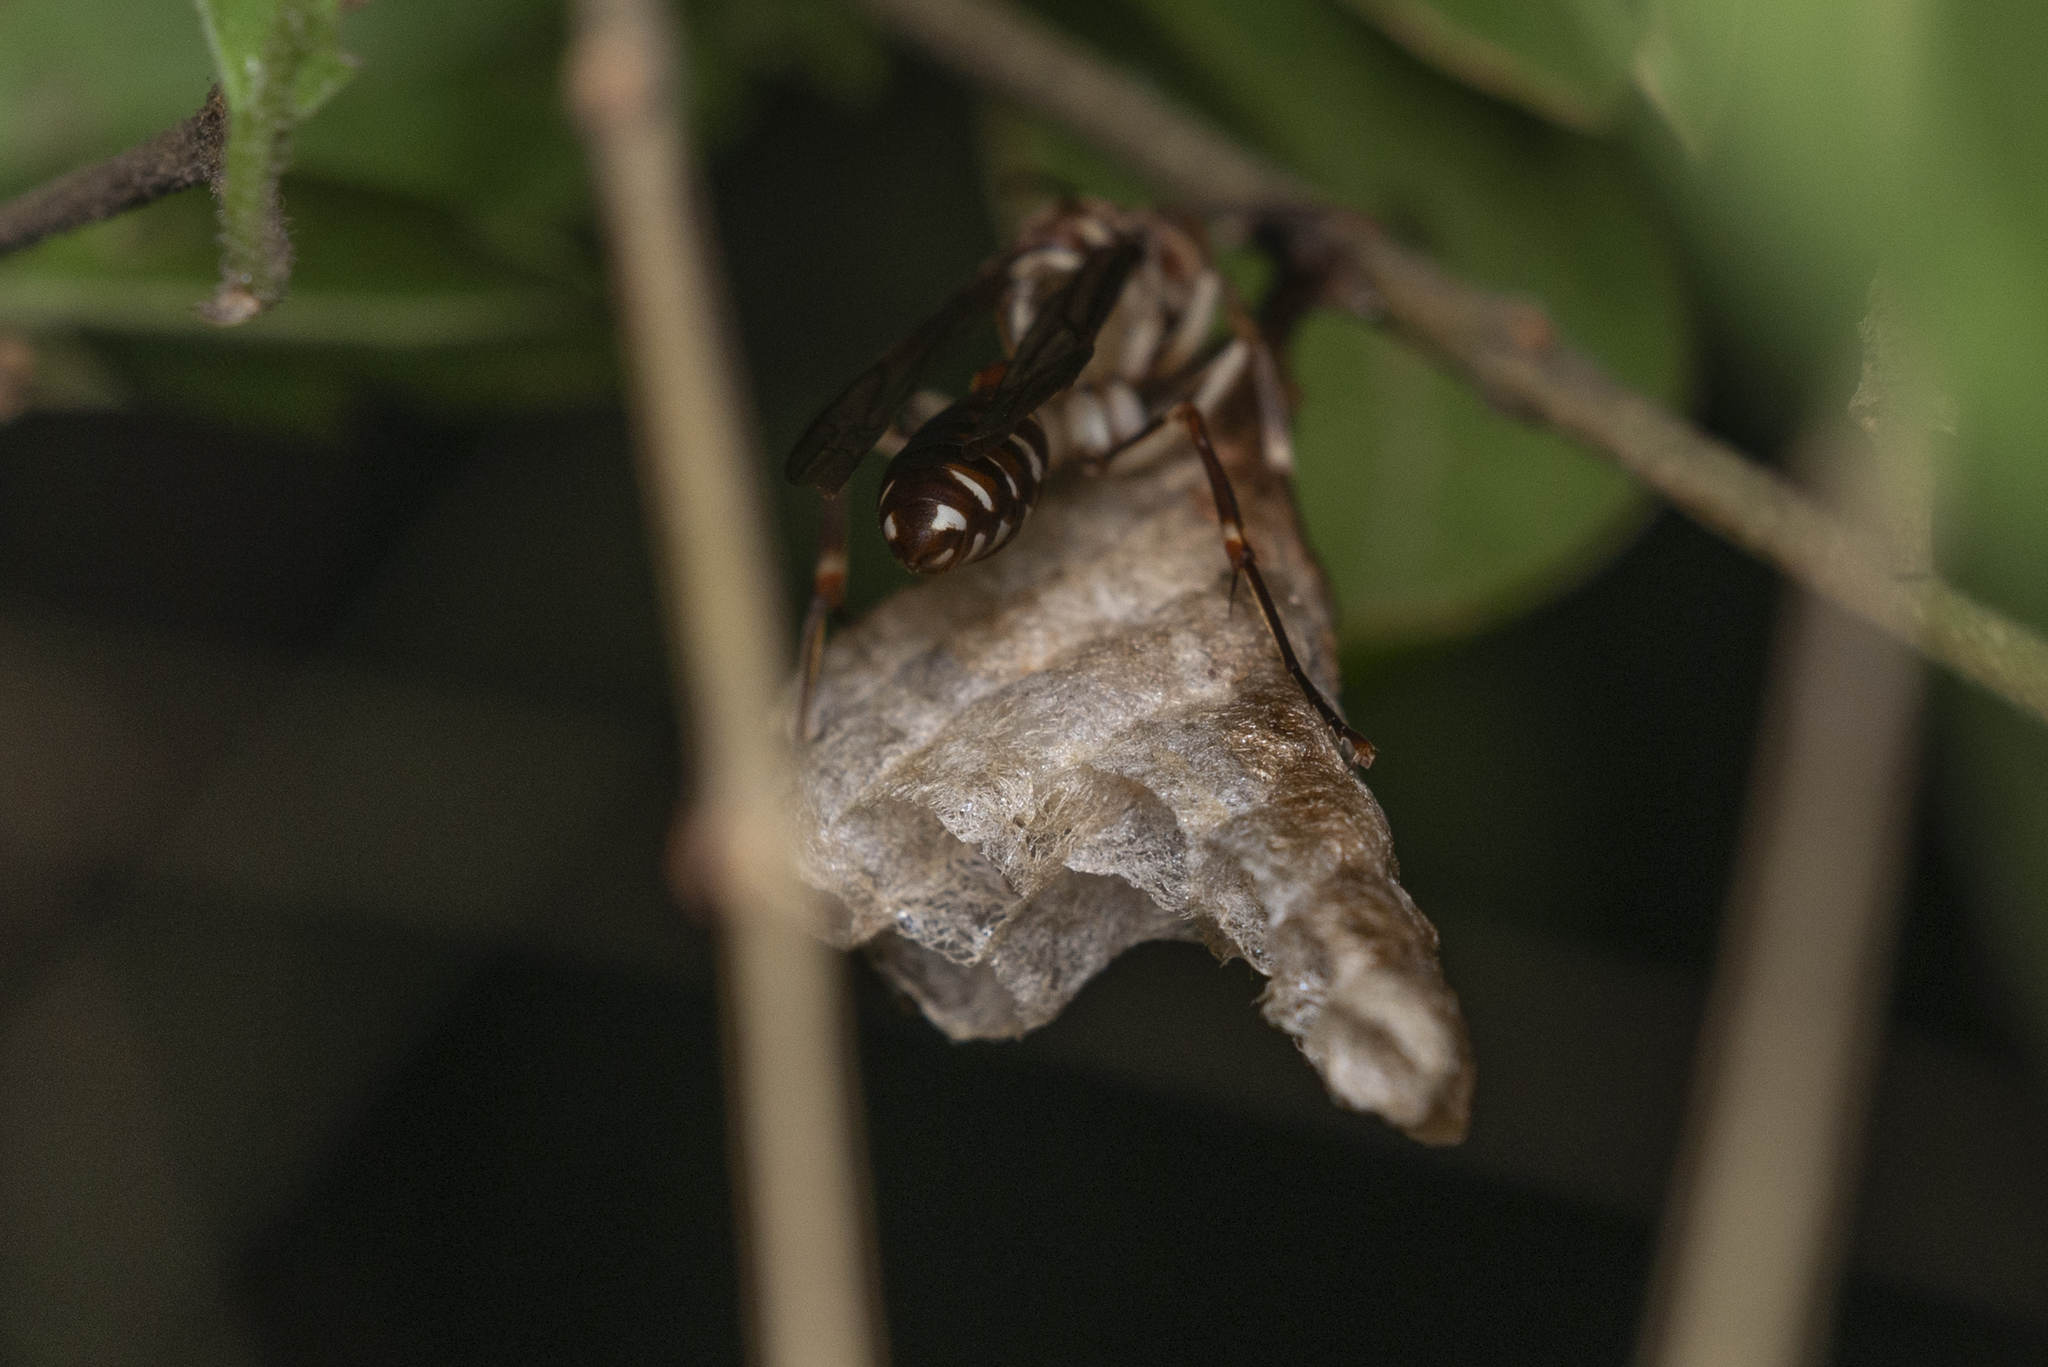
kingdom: Animalia
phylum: Arthropoda
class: Insecta
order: Hymenoptera
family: Vespidae
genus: Parapolybia
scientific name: Parapolybia nodosa
